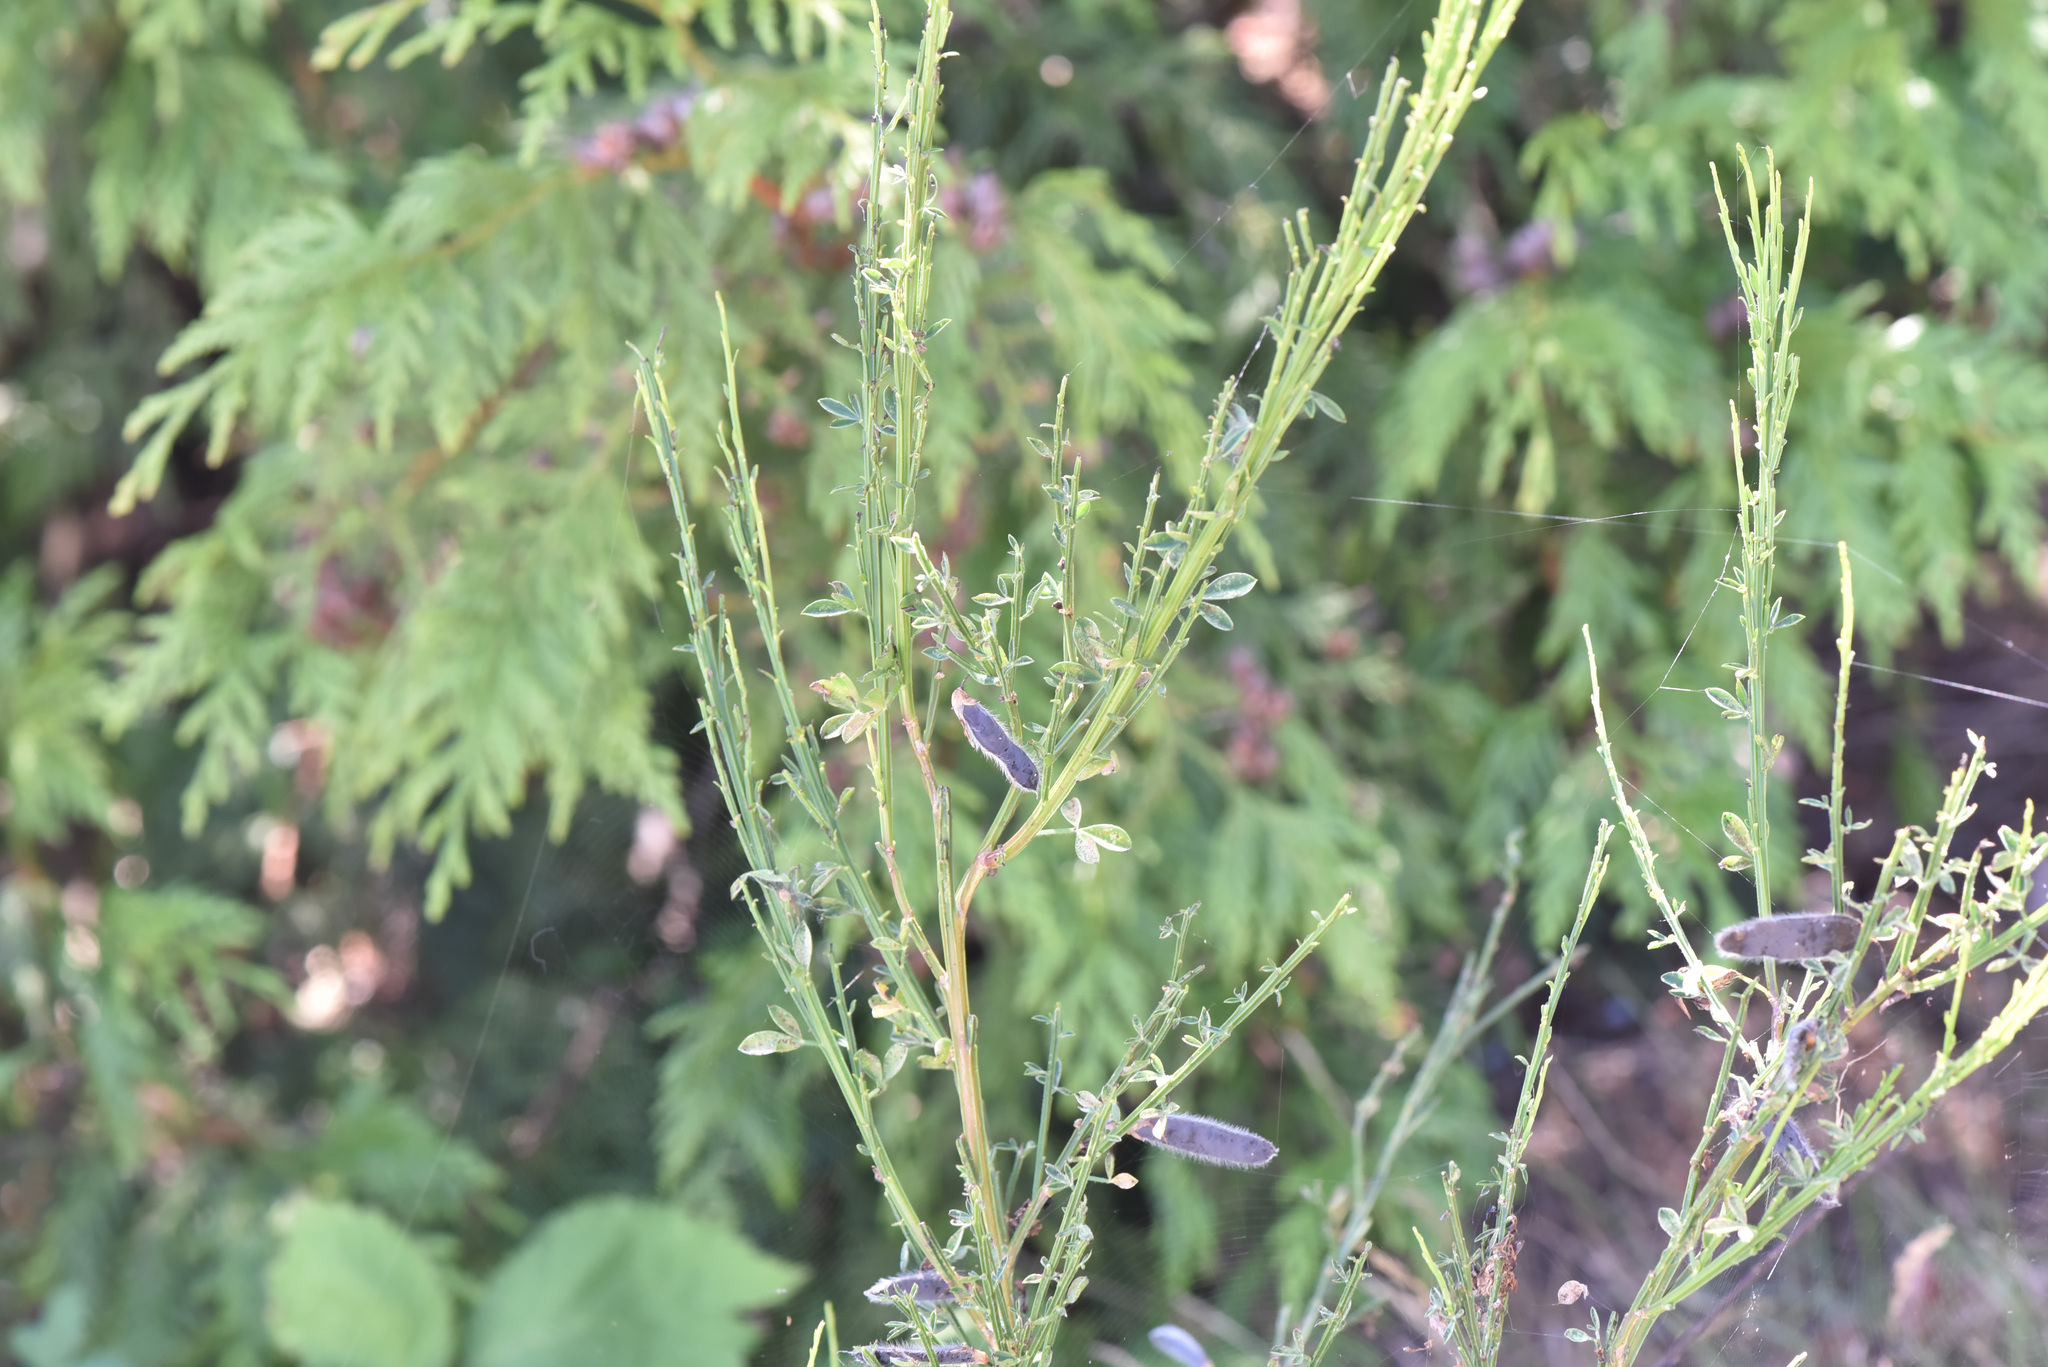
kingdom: Plantae
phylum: Tracheophyta
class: Magnoliopsida
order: Fabales
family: Fabaceae
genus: Cytisus
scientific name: Cytisus scoparius
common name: Scotch broom
